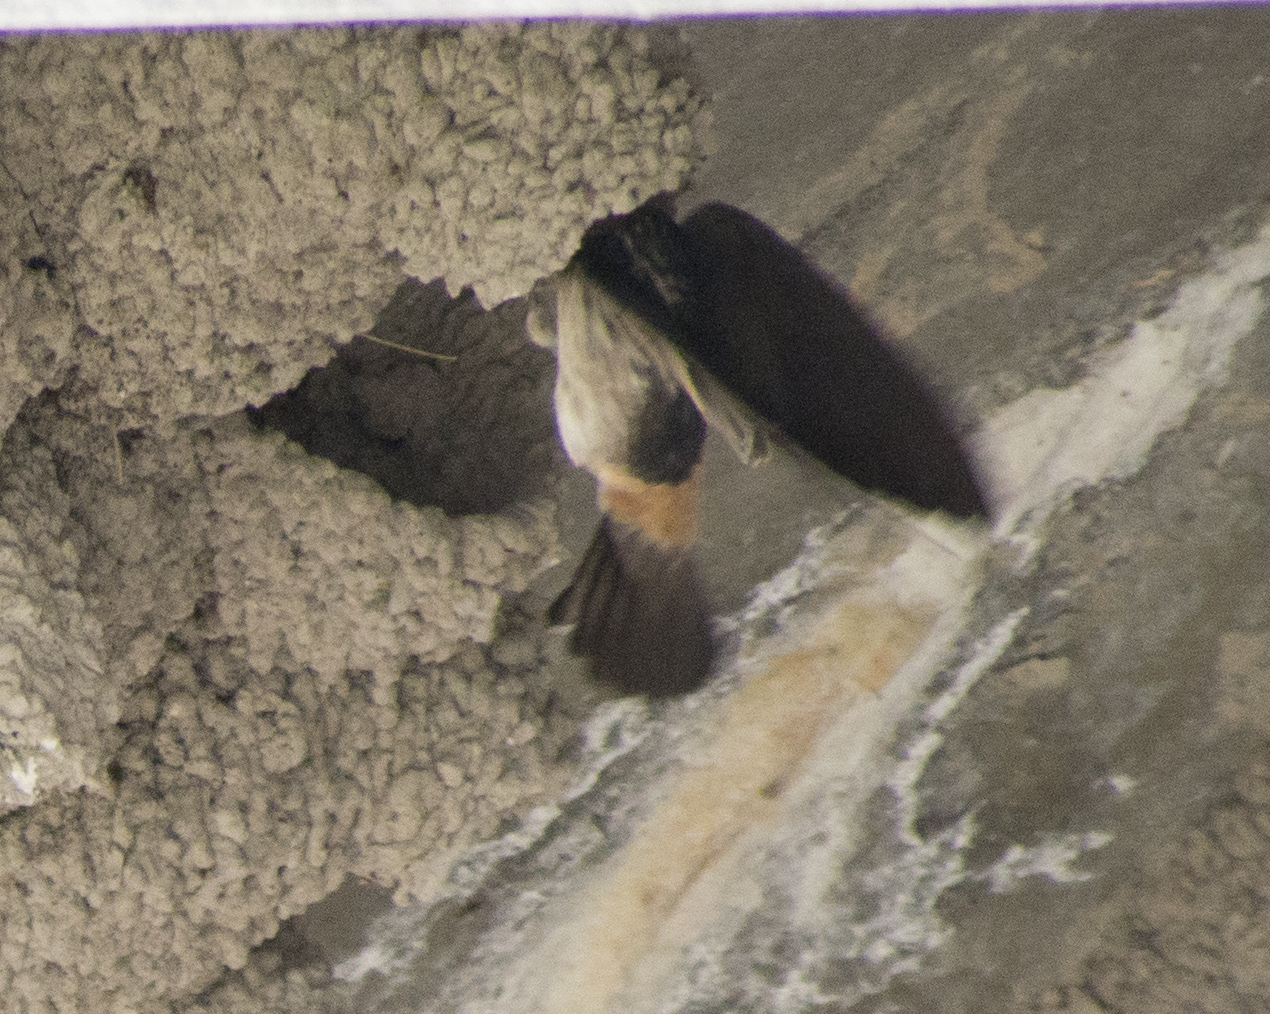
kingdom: Animalia
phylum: Chordata
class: Aves
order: Passeriformes
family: Hirundinidae
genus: Petrochelidon
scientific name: Petrochelidon pyrrhonota
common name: American cliff swallow
